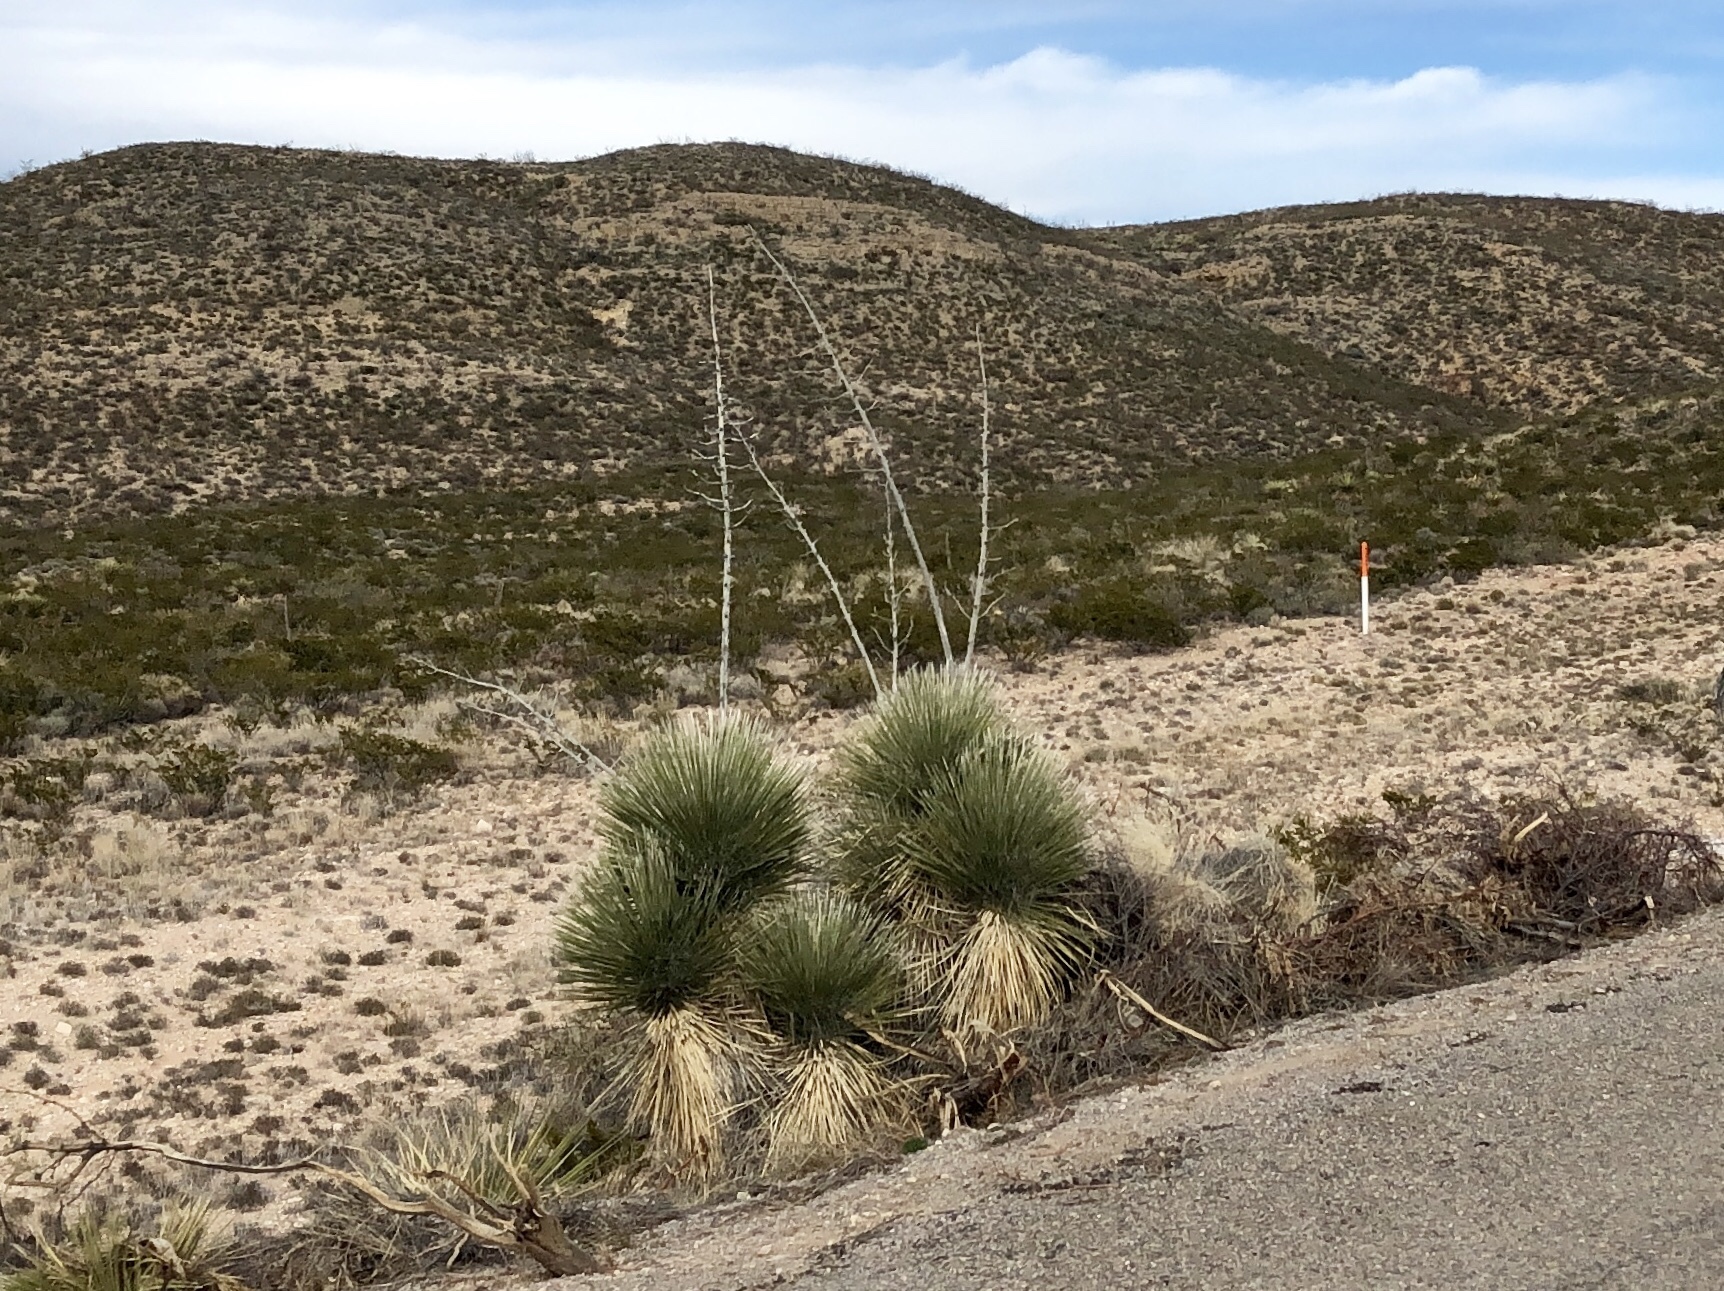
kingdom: Plantae
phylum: Tracheophyta
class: Liliopsida
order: Asparagales
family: Asparagaceae
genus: Yucca
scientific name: Yucca elata
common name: Palmella
